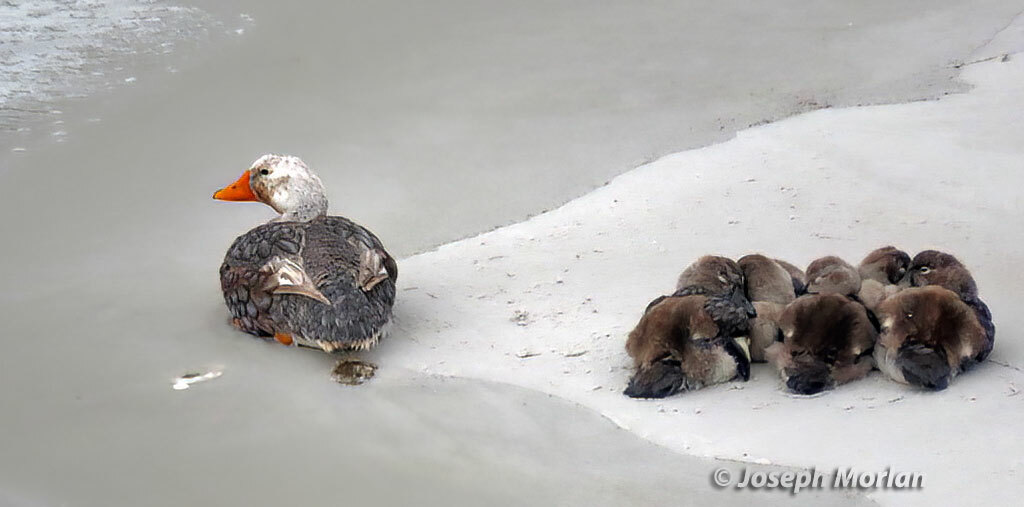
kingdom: Animalia
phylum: Chordata
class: Aves
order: Anseriformes
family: Anatidae
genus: Tachyeres
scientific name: Tachyeres brachypterus
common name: Falkland steamer duck
